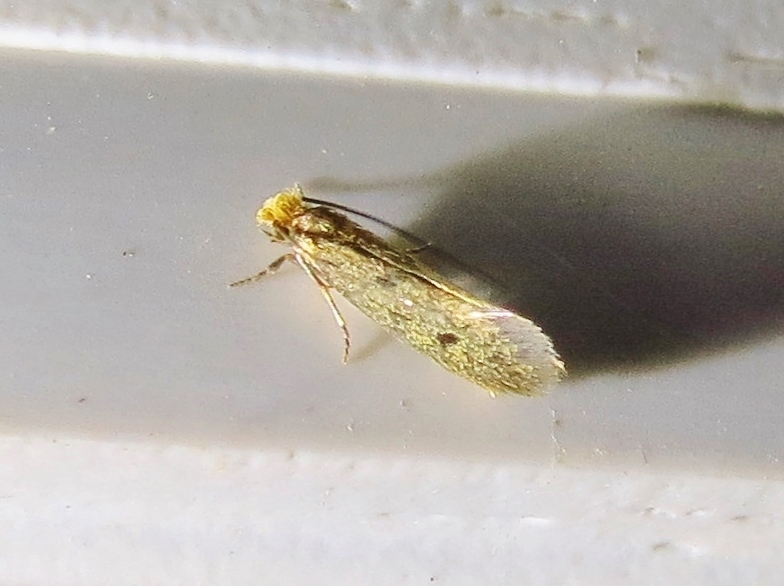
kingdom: Animalia
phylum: Arthropoda
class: Insecta
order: Lepidoptera
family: Tineidae
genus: Tinea
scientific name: Tinea pellionella
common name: Case-making clothes moth
